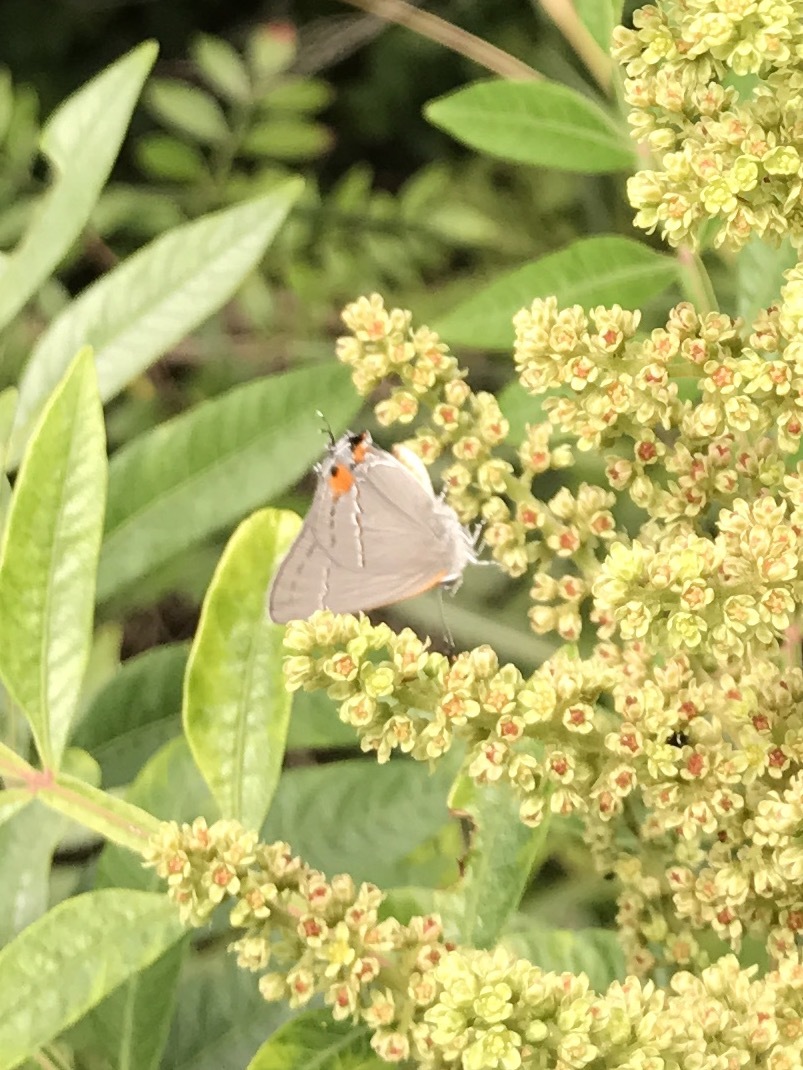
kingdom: Animalia
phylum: Arthropoda
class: Insecta
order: Lepidoptera
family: Lycaenidae
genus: Strymon
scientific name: Strymon melinus
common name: Gray hairstreak
